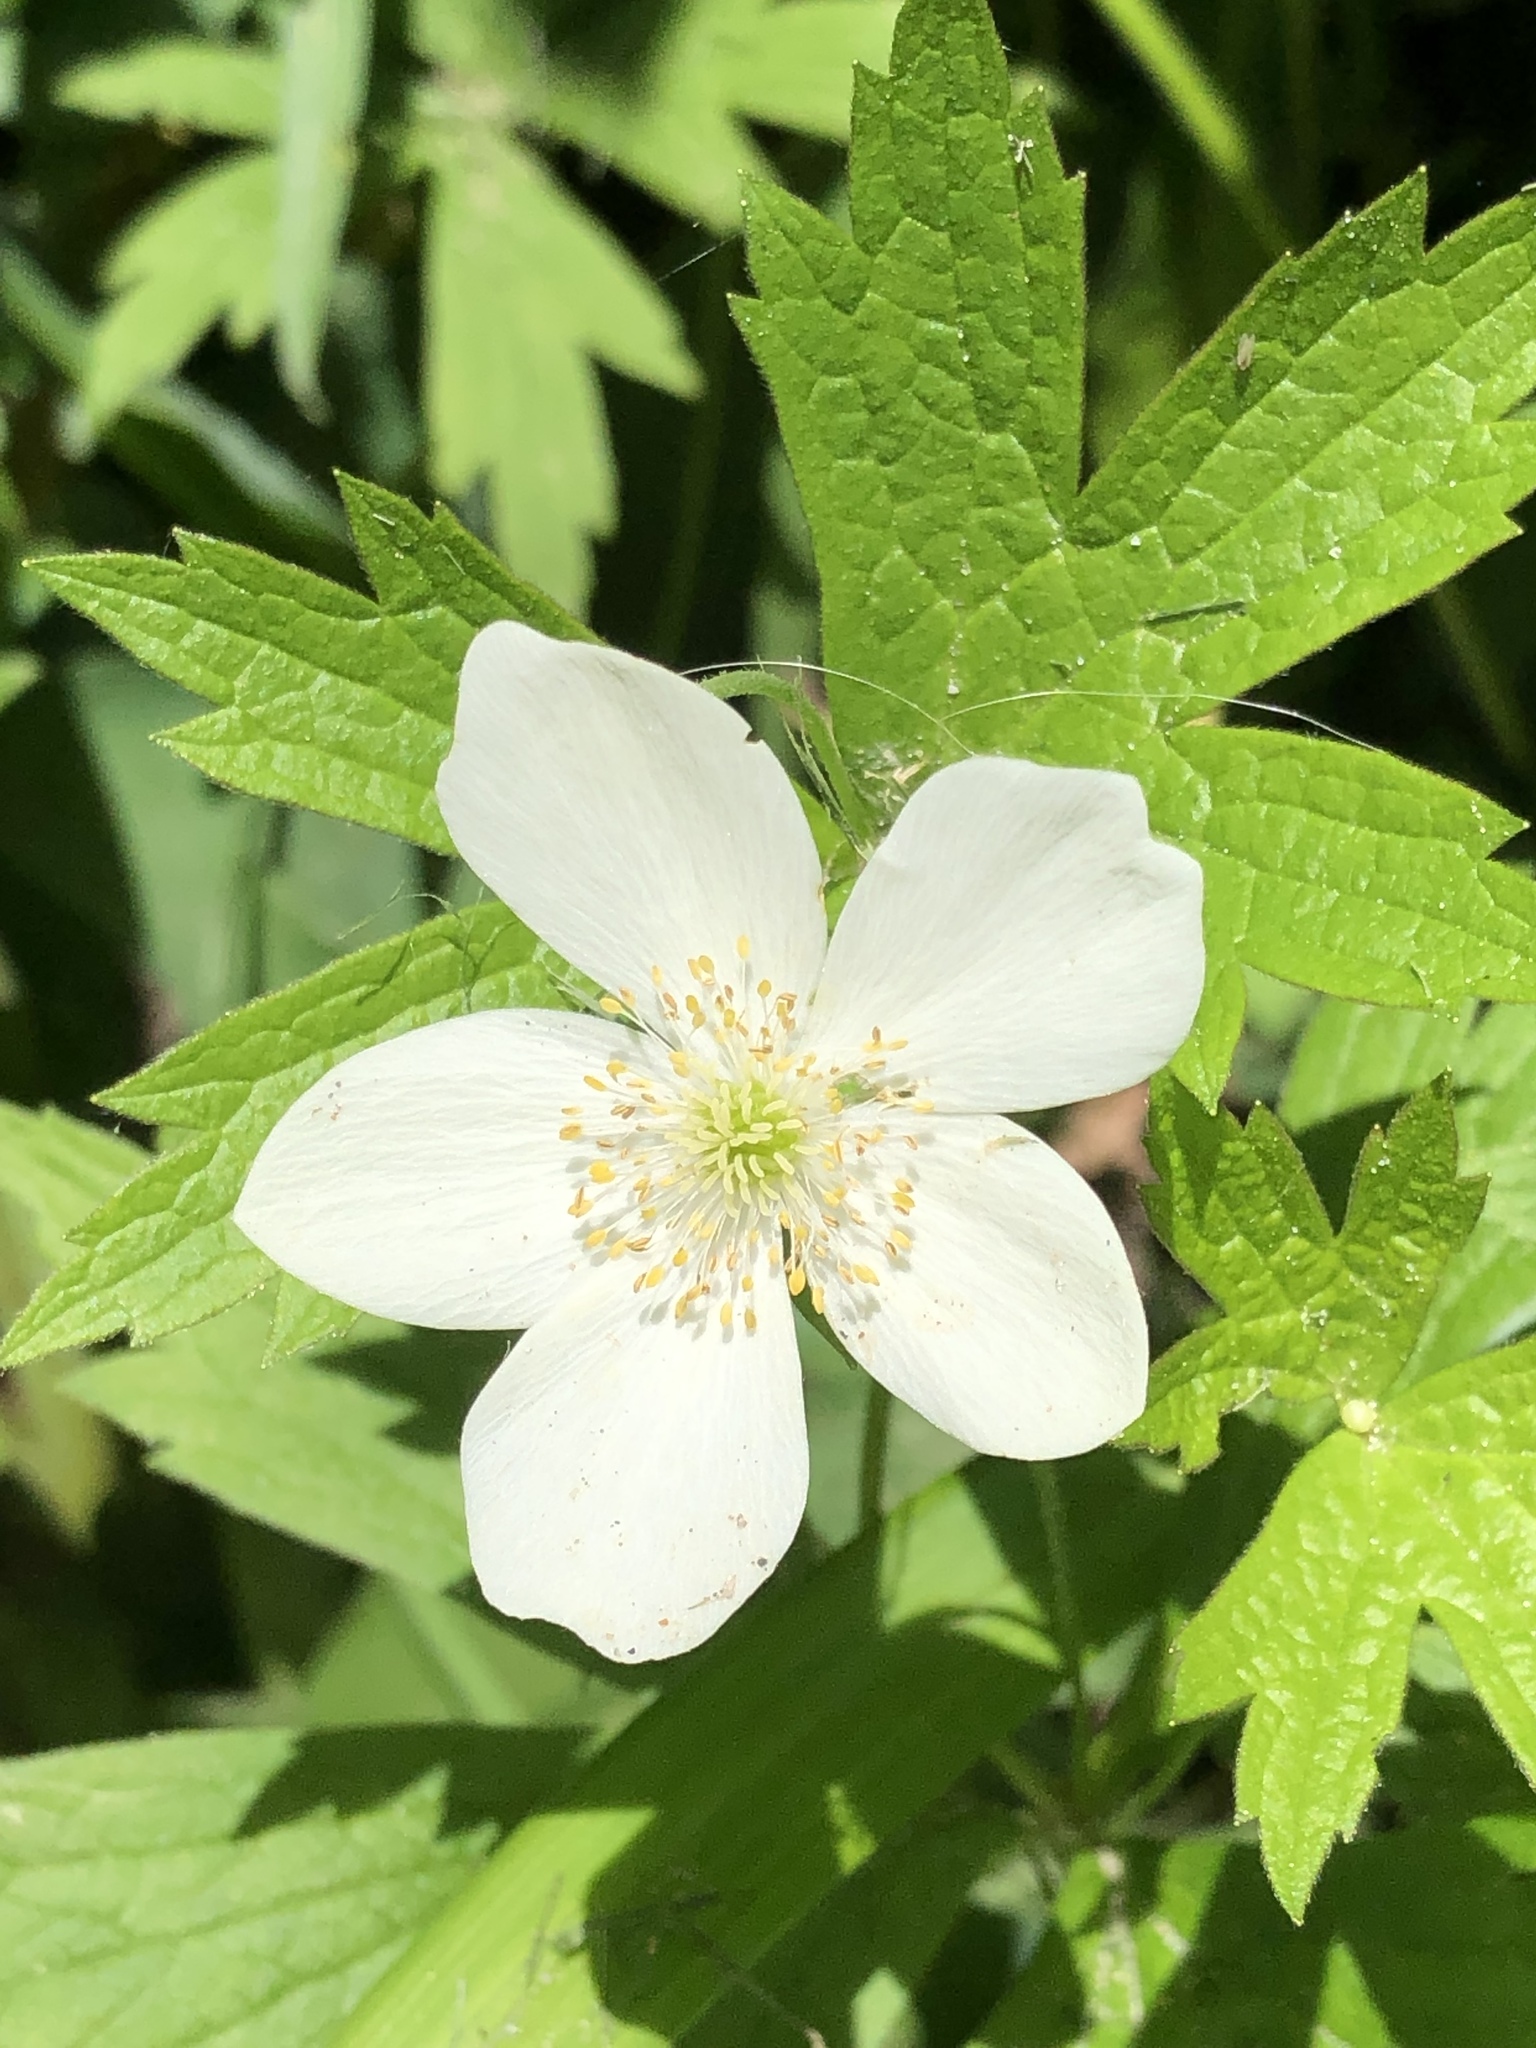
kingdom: Plantae
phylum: Tracheophyta
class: Magnoliopsida
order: Ranunculales
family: Ranunculaceae
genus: Anemonastrum
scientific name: Anemonastrum canadense
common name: Canada anemone
